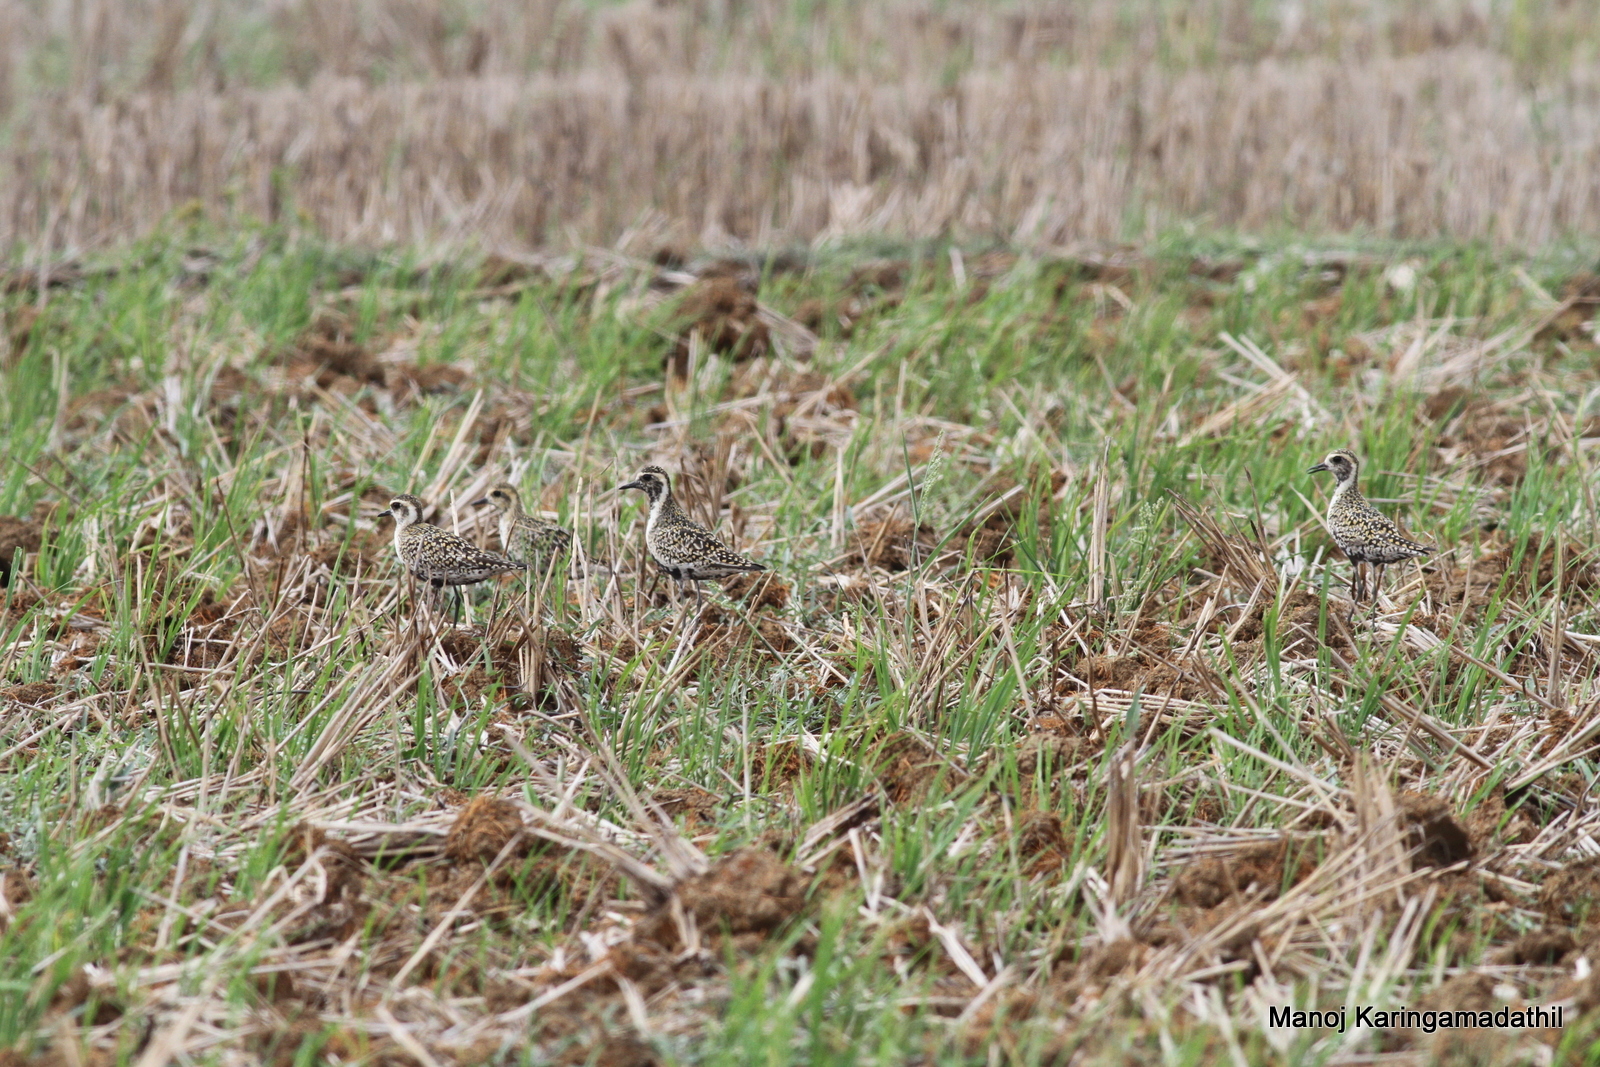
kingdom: Animalia
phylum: Chordata
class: Aves
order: Charadriiformes
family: Charadriidae
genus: Pluvialis
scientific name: Pluvialis fulva
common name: Pacific golden plover
